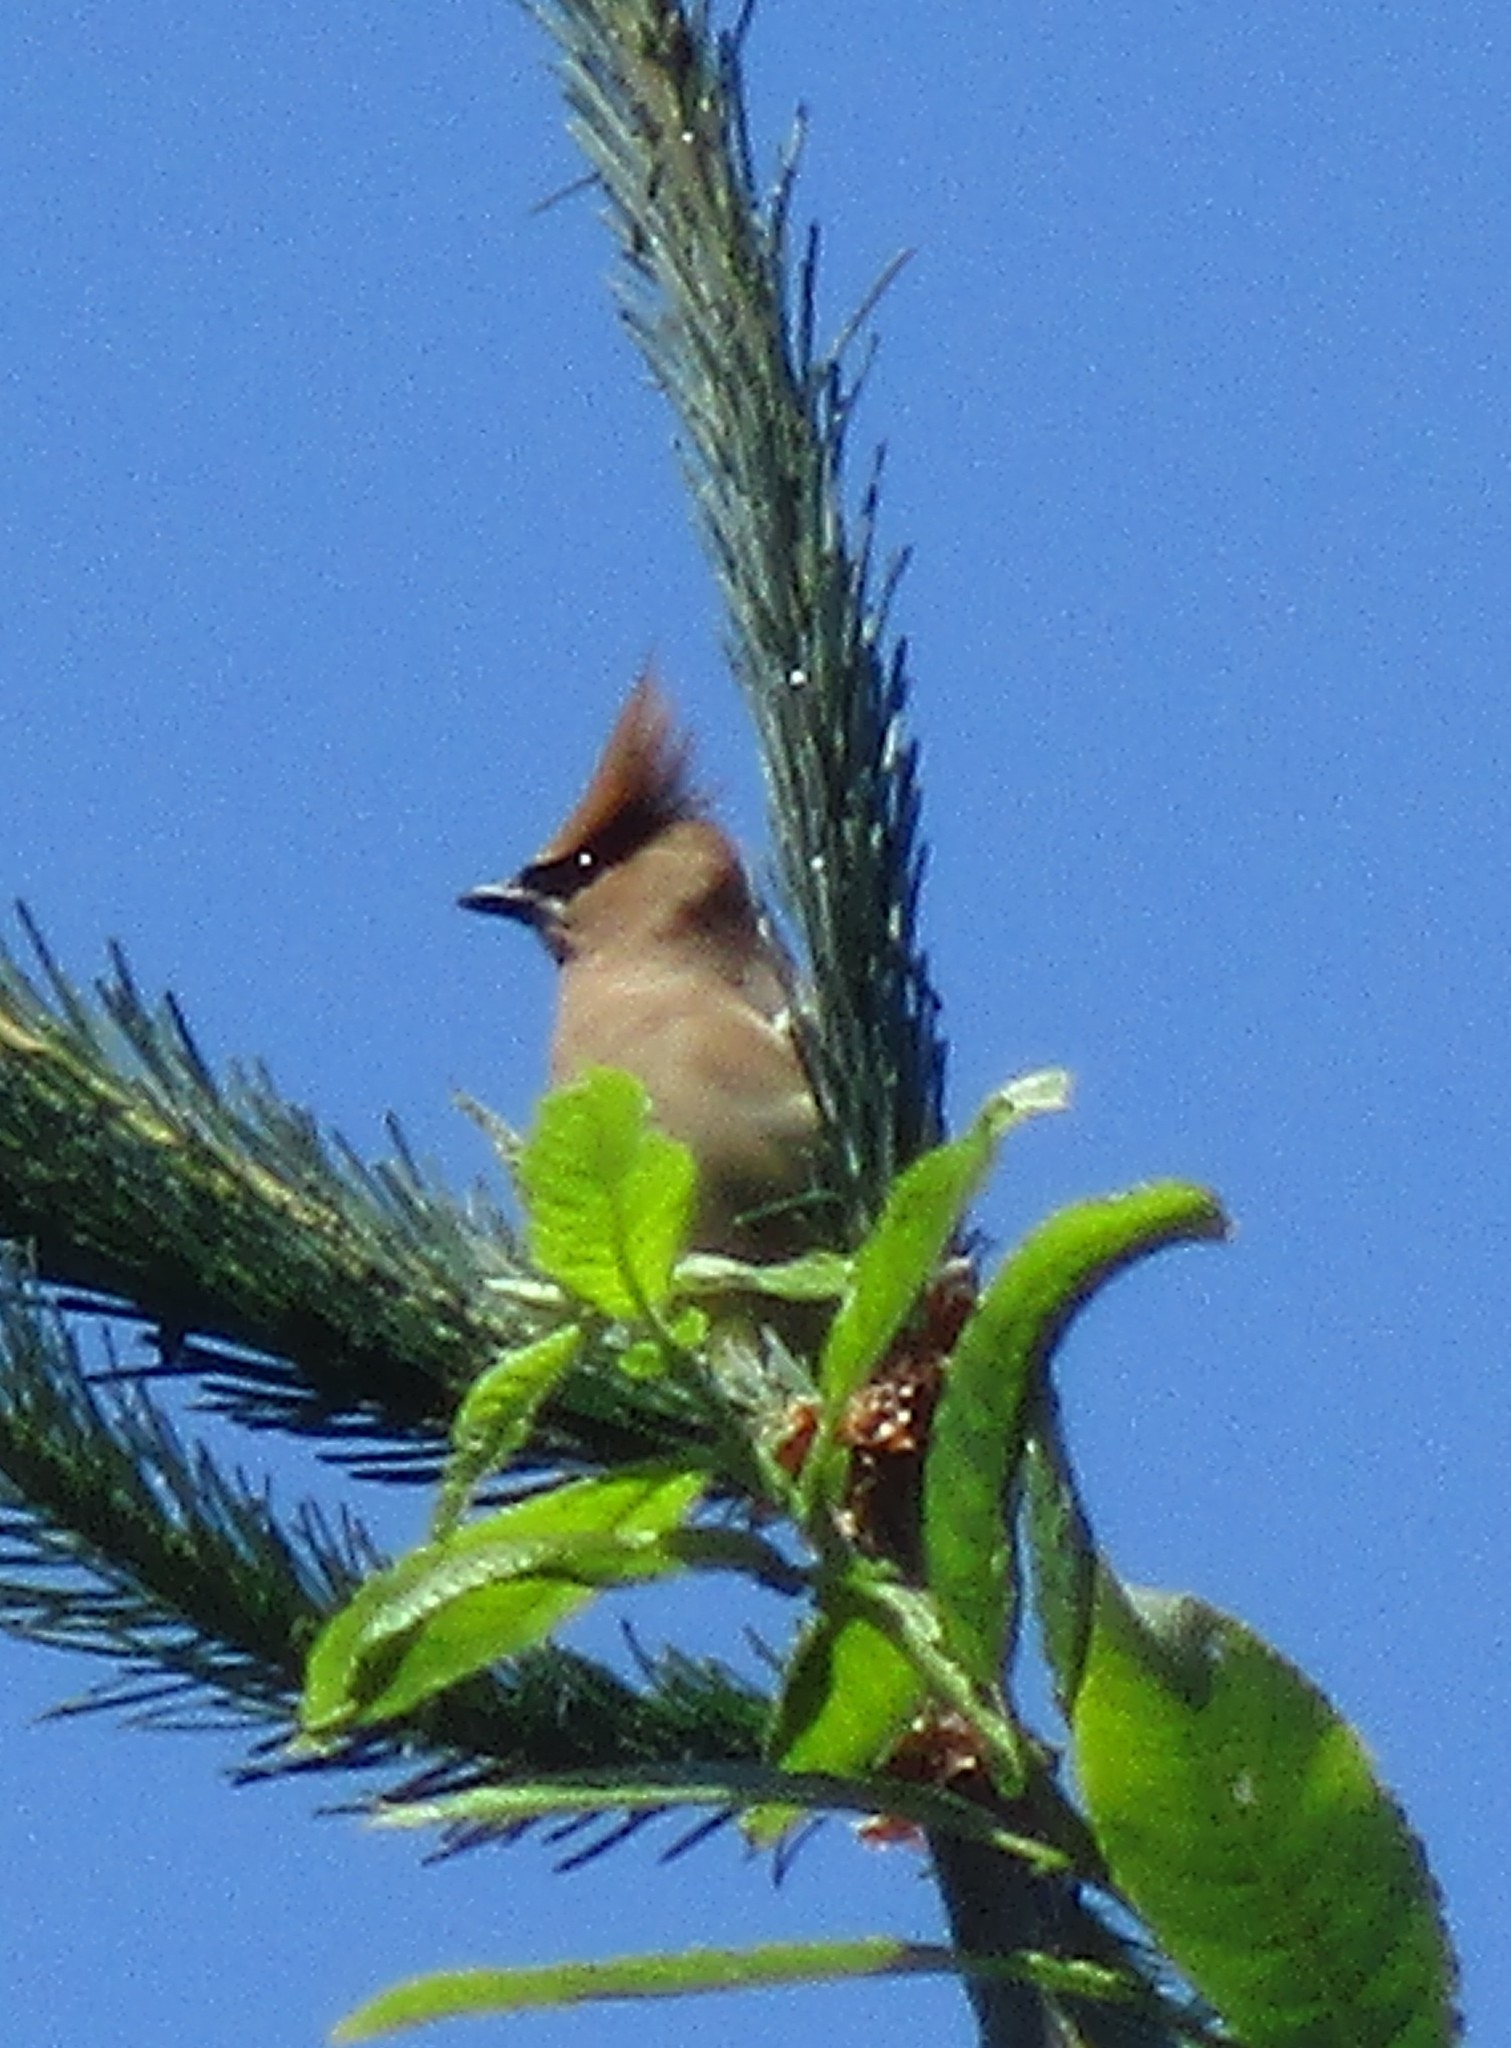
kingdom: Animalia
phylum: Chordata
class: Aves
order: Passeriformes
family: Bombycillidae
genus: Bombycilla
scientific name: Bombycilla cedrorum
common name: Cedar waxwing
